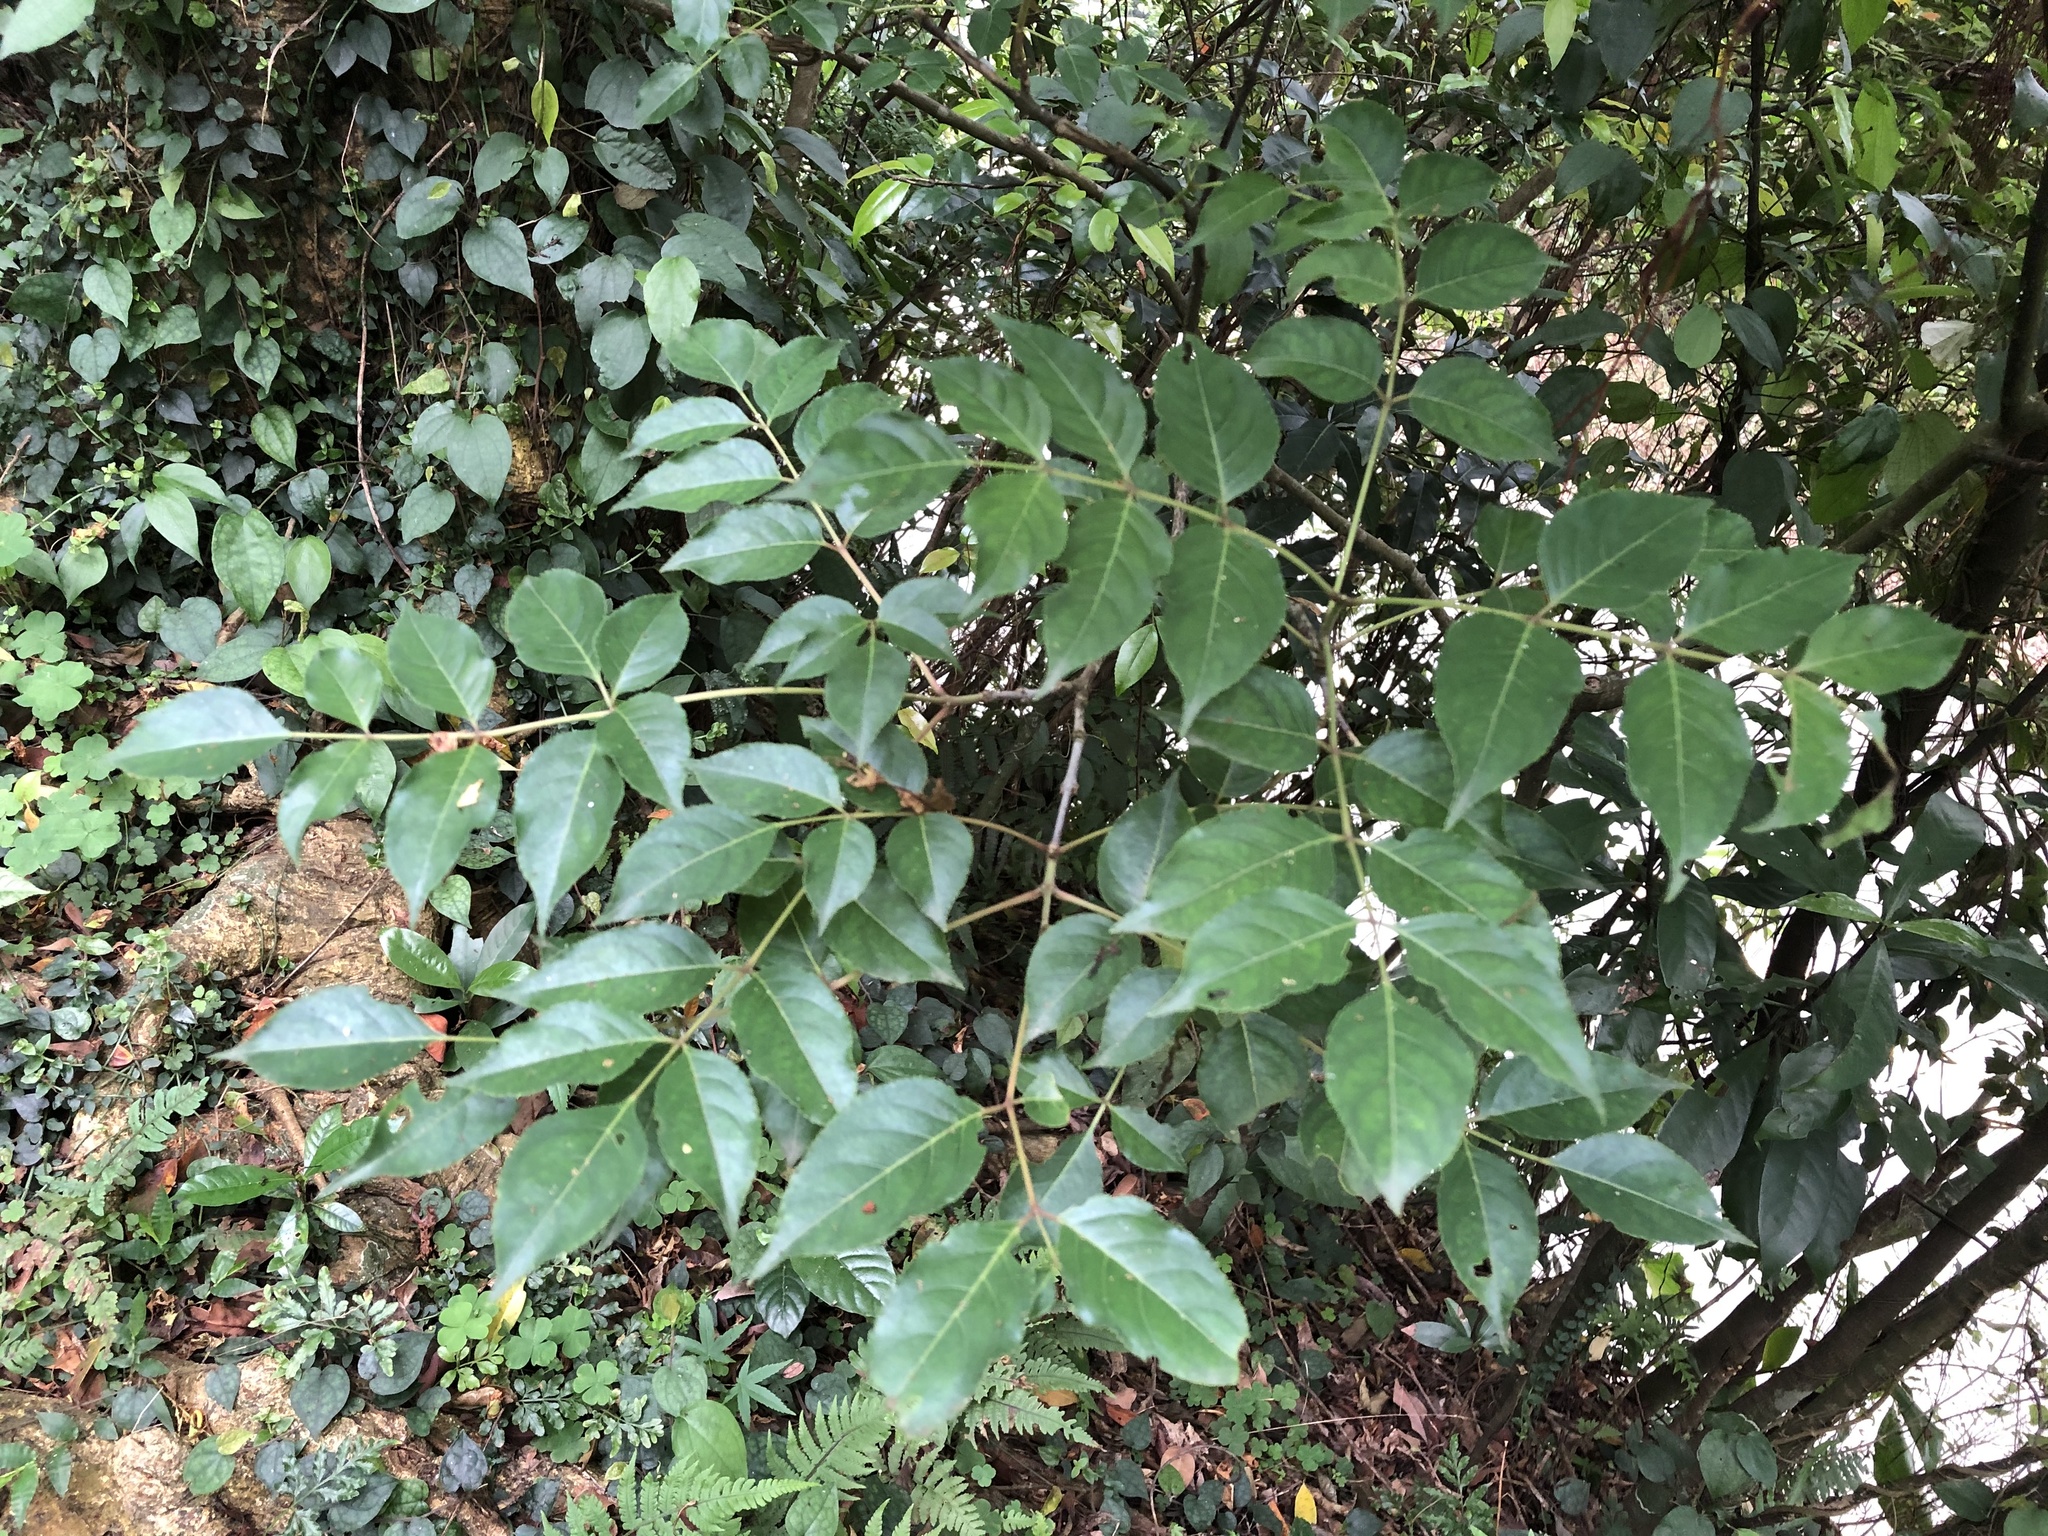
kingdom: Plantae
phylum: Tracheophyta
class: Magnoliopsida
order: Crossosomatales
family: Staphyleaceae
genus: Staphylea
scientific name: Staphylea japonica
